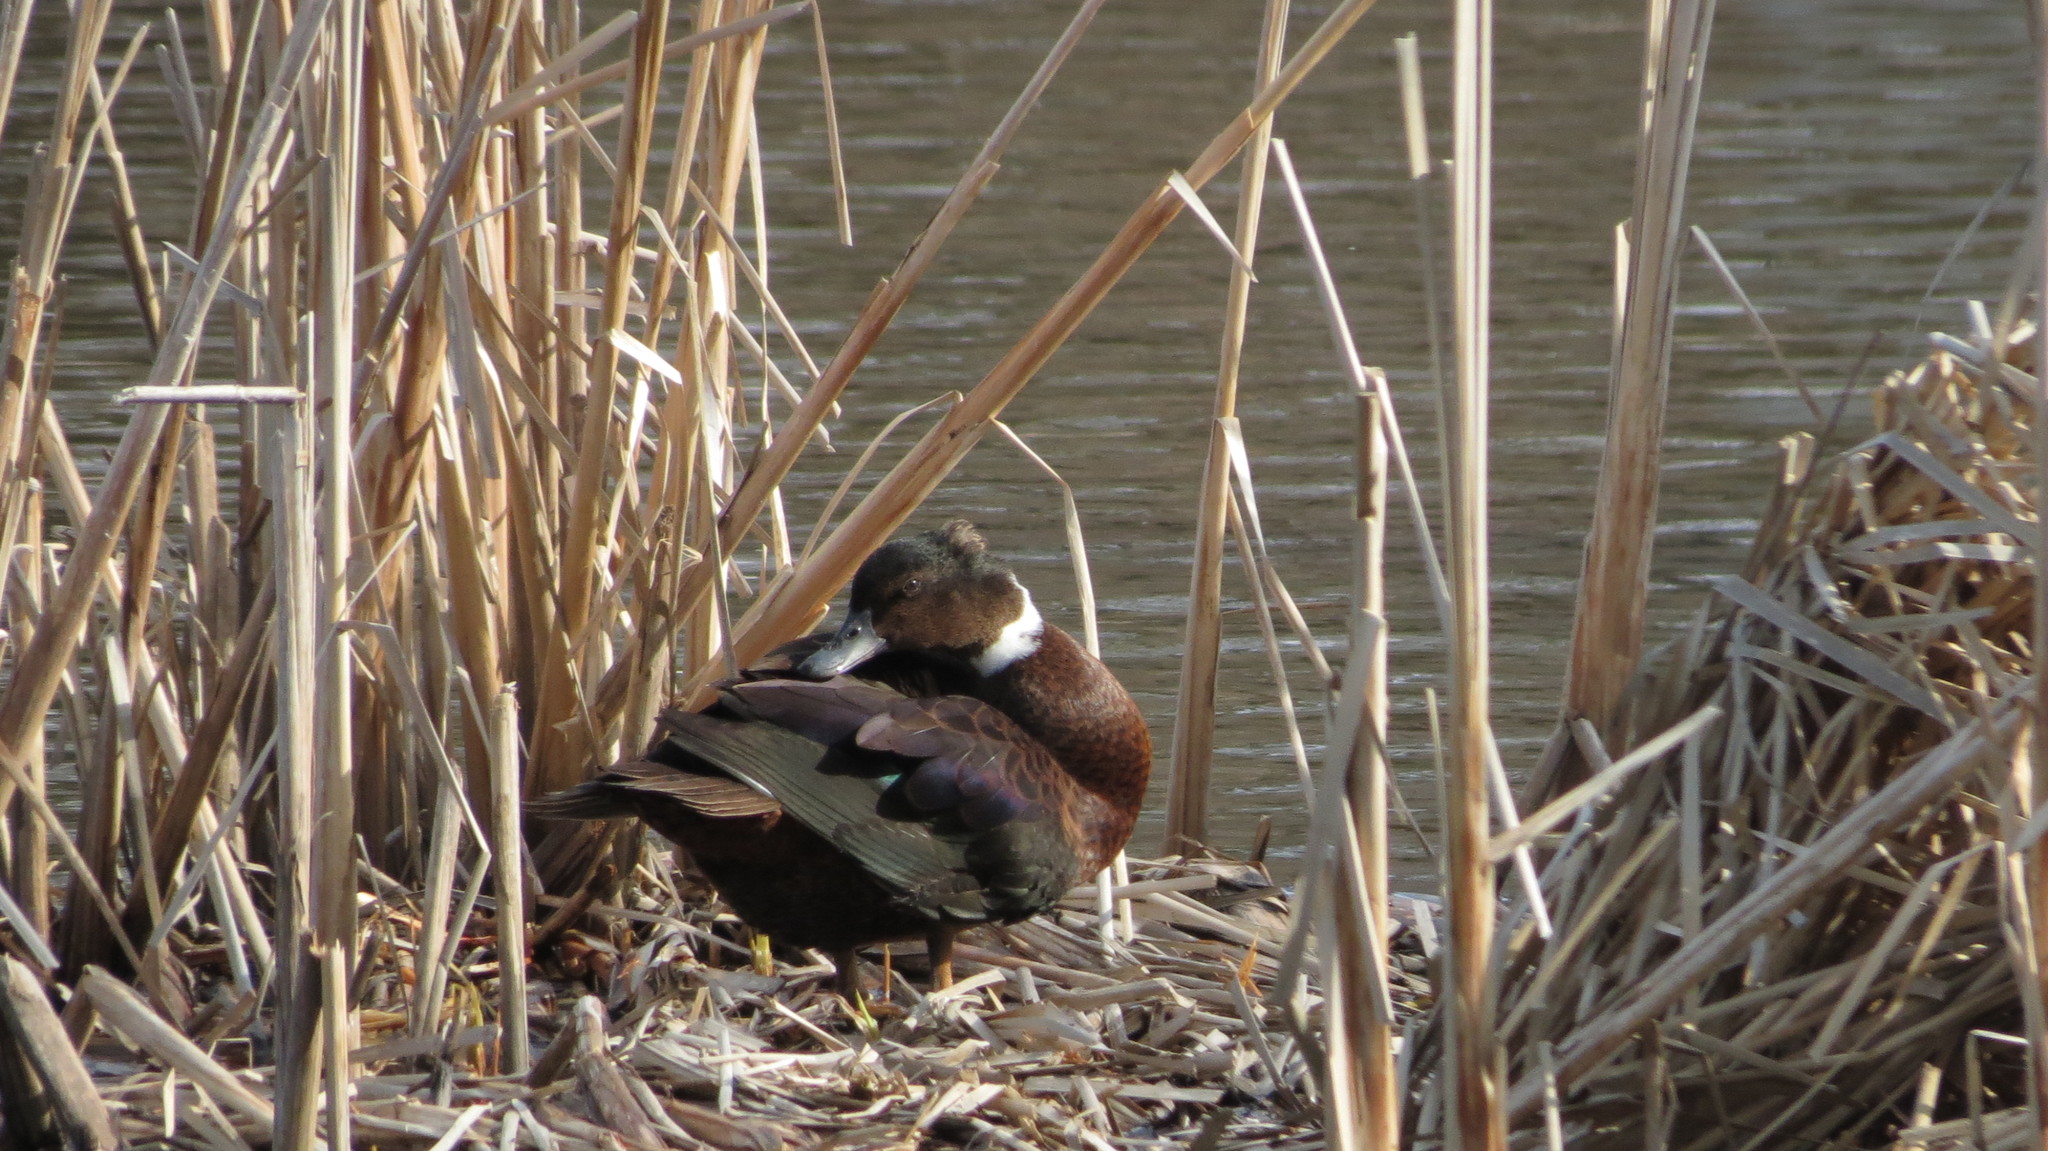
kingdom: Animalia
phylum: Chordata
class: Aves
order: Anseriformes
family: Anatidae
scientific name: Anatidae
